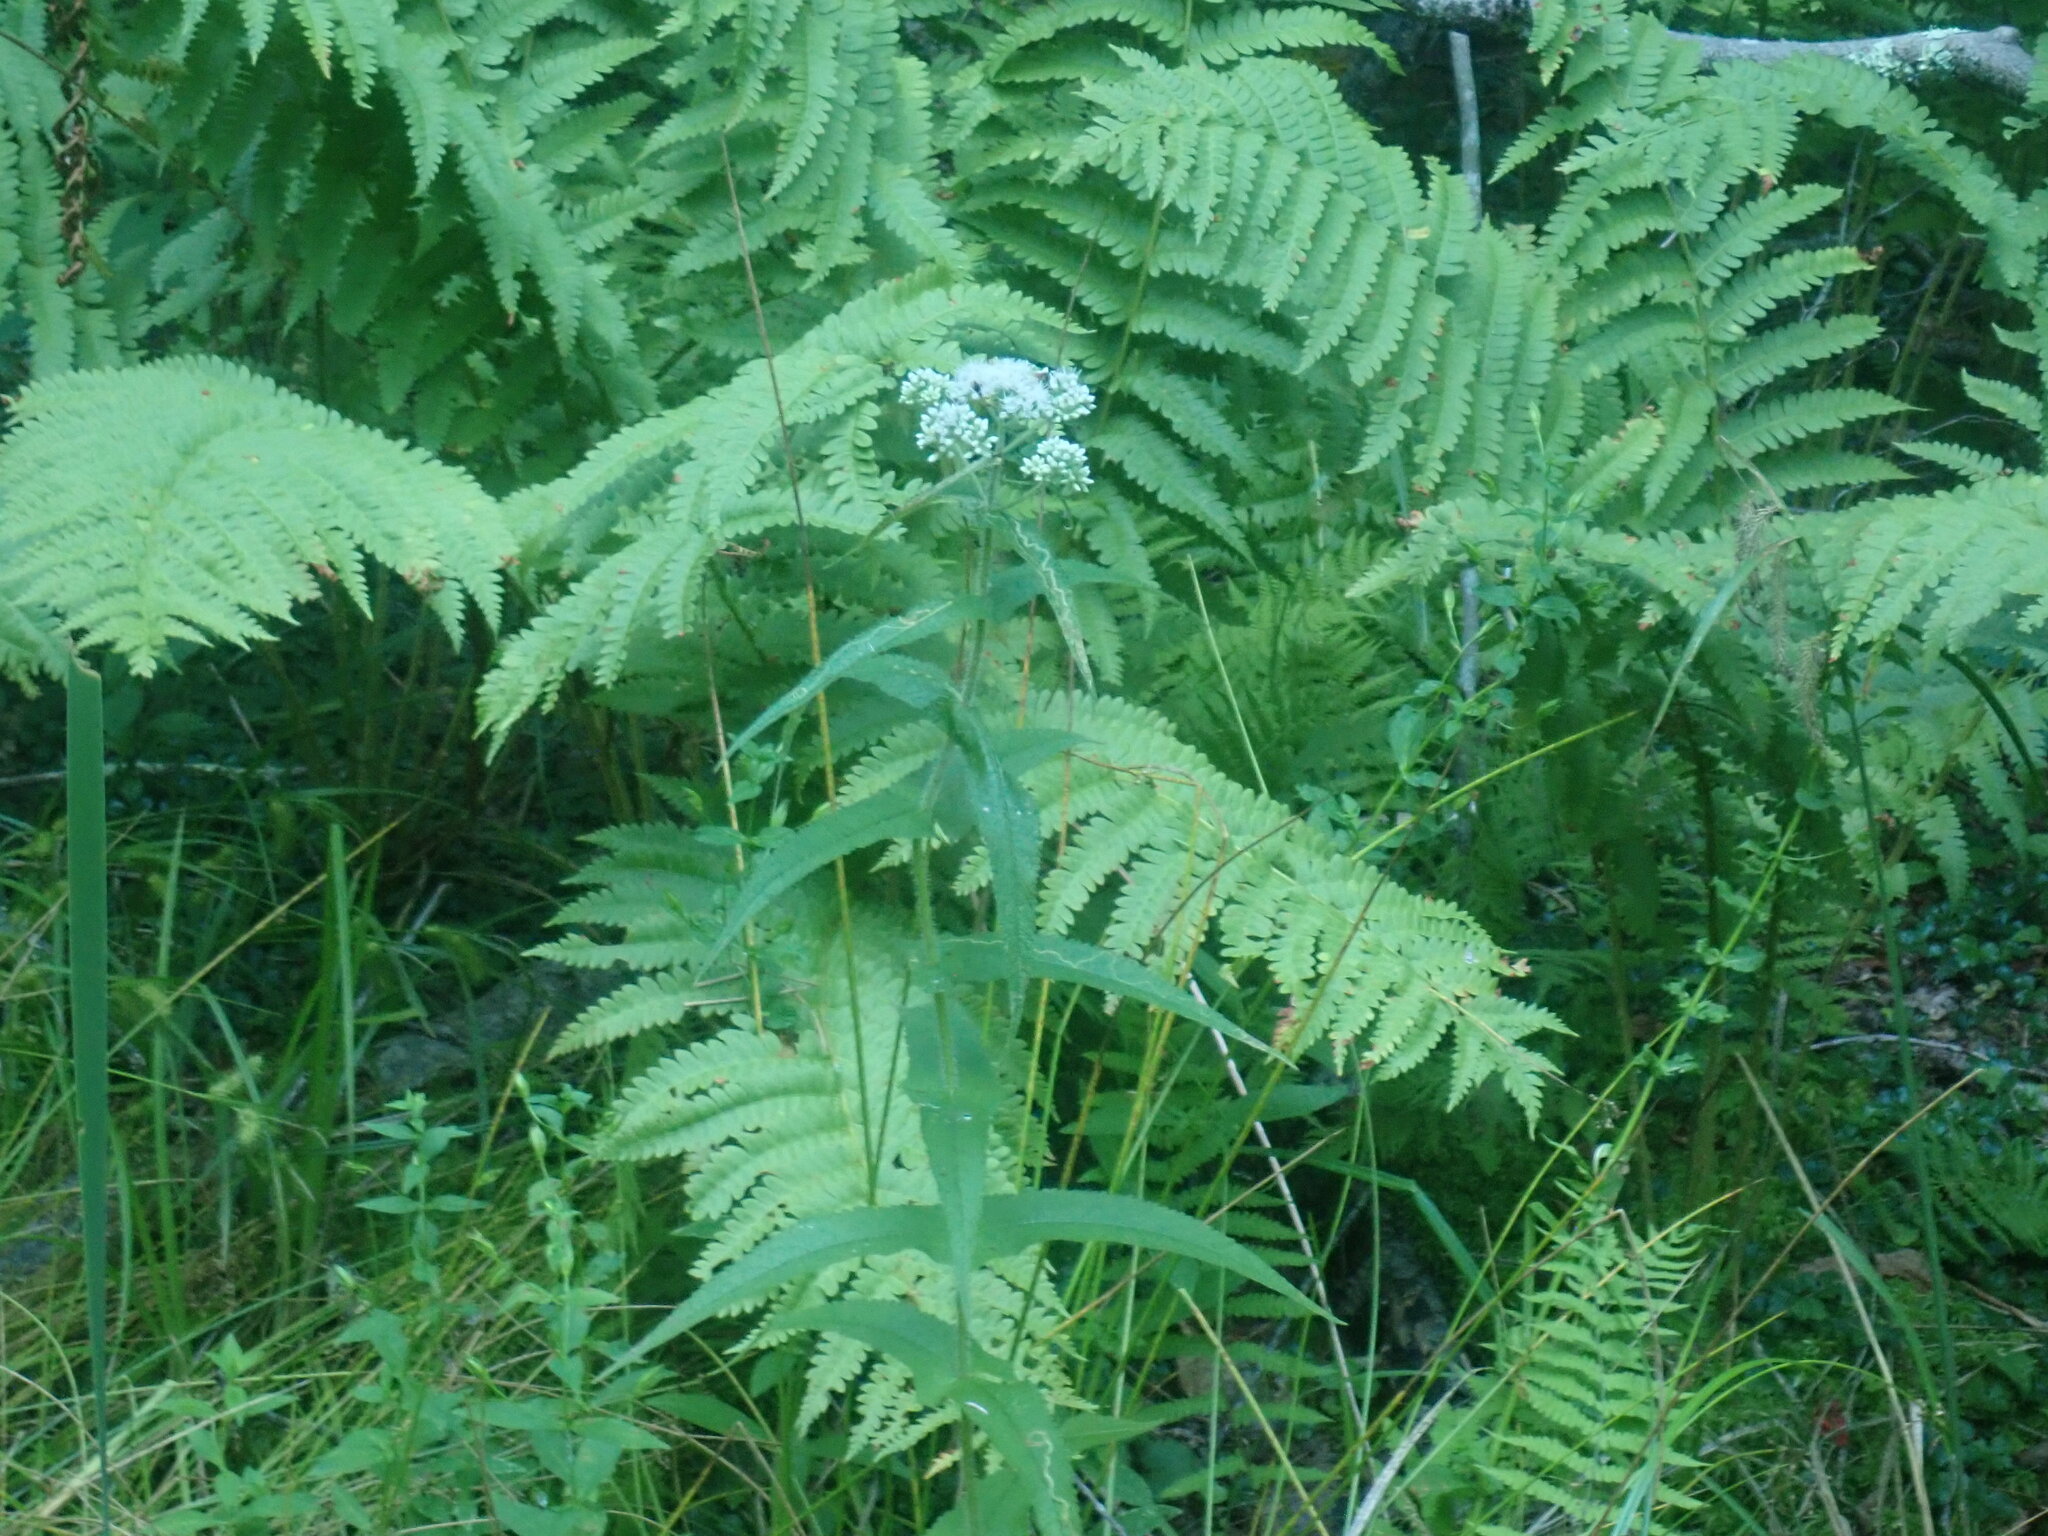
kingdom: Plantae
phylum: Tracheophyta
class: Magnoliopsida
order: Asterales
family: Asteraceae
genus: Eupatorium
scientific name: Eupatorium perfoliatum
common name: Boneset
